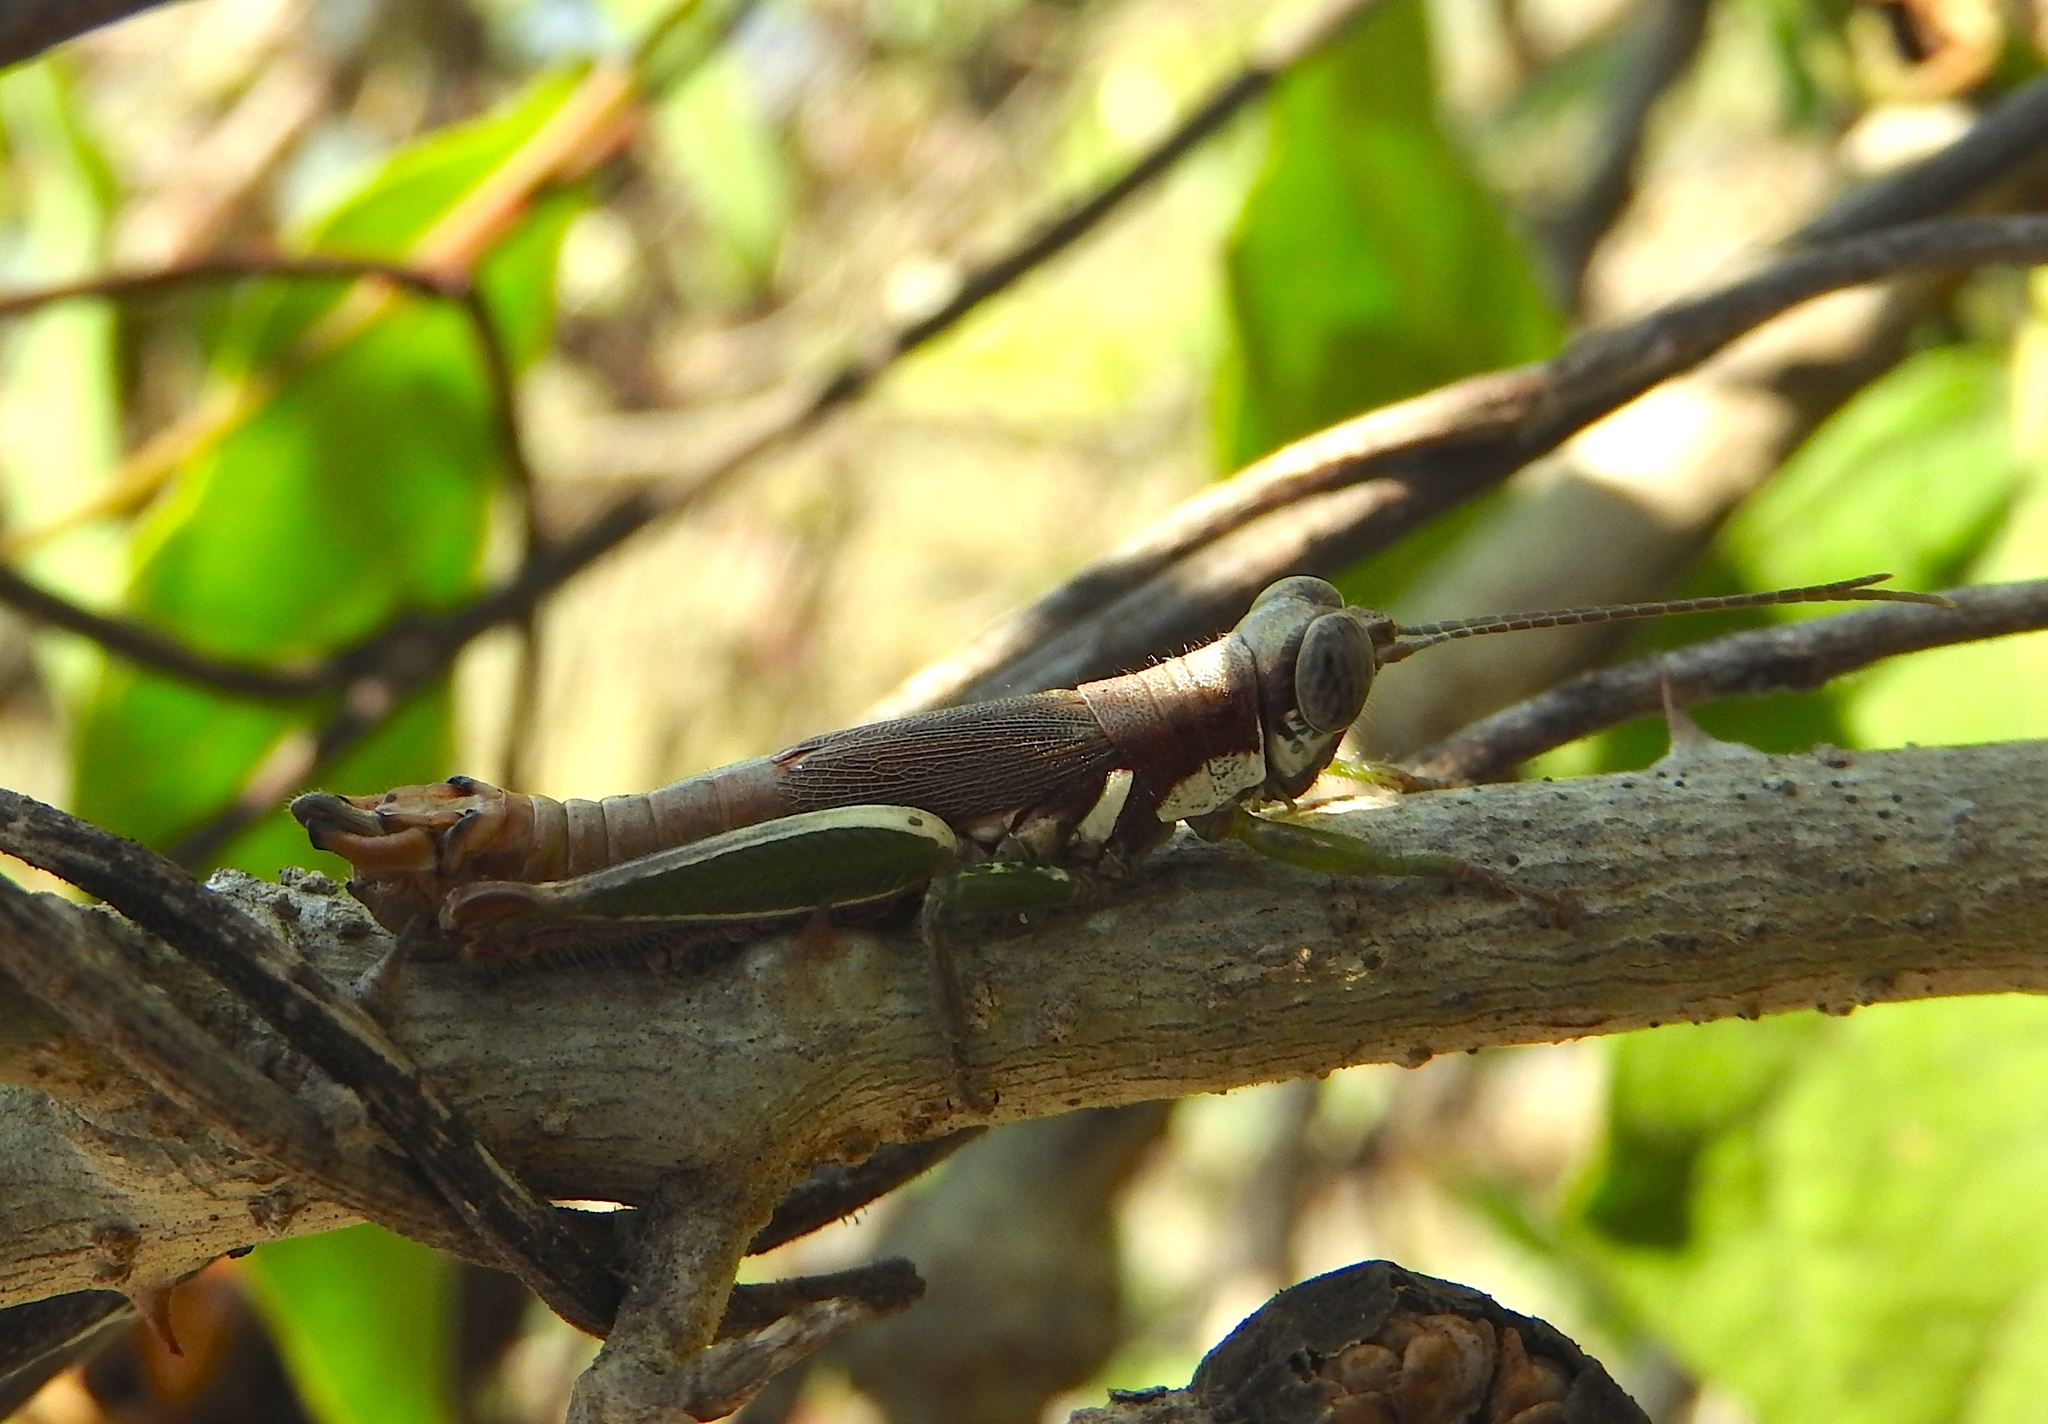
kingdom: Animalia
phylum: Arthropoda
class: Insecta
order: Orthoptera
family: Acrididae
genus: Proctolabus
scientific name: Proctolabus cerciatus
